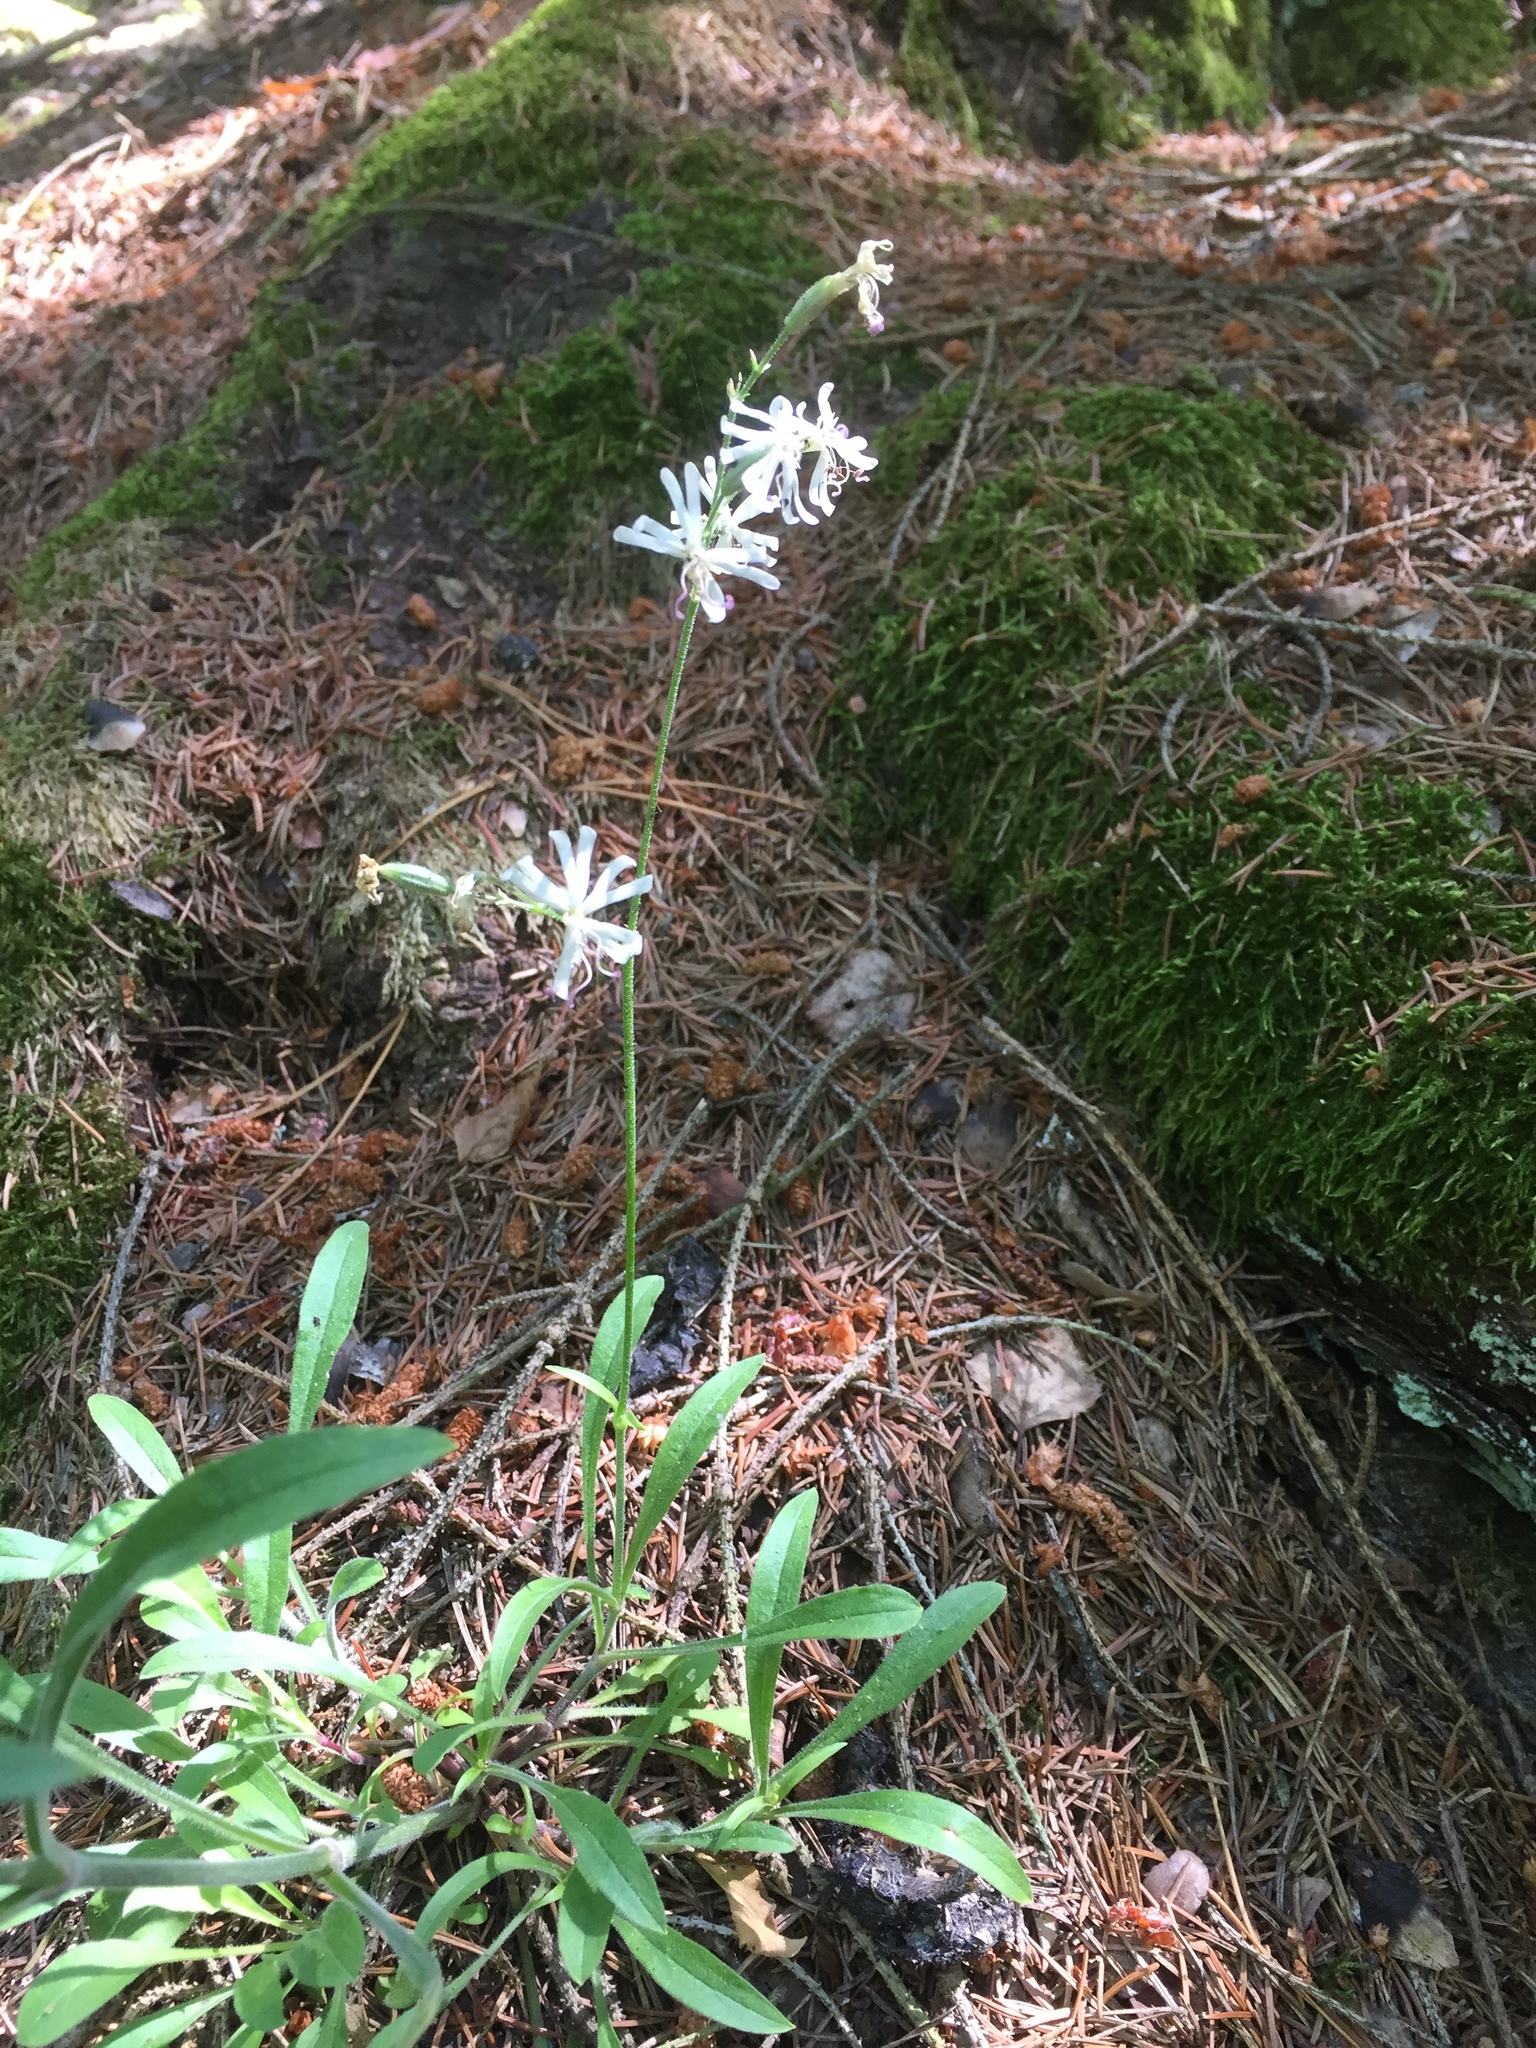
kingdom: Plantae
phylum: Tracheophyta
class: Magnoliopsida
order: Caryophyllales
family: Caryophyllaceae
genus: Silene
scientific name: Silene nutans
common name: Nottingham catchfly
